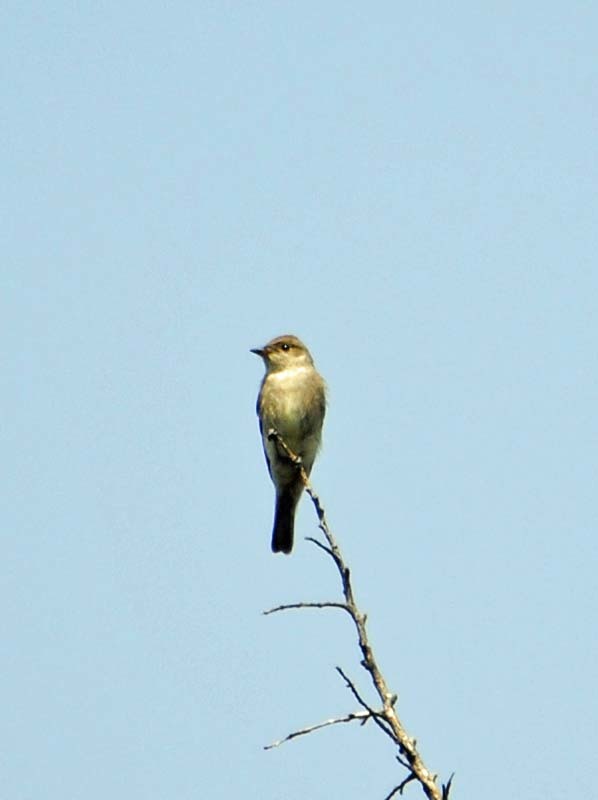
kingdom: Animalia
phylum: Chordata
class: Aves
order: Passeriformes
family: Tyrannidae
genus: Contopus
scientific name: Contopus sordidulus
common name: Western wood-pewee
